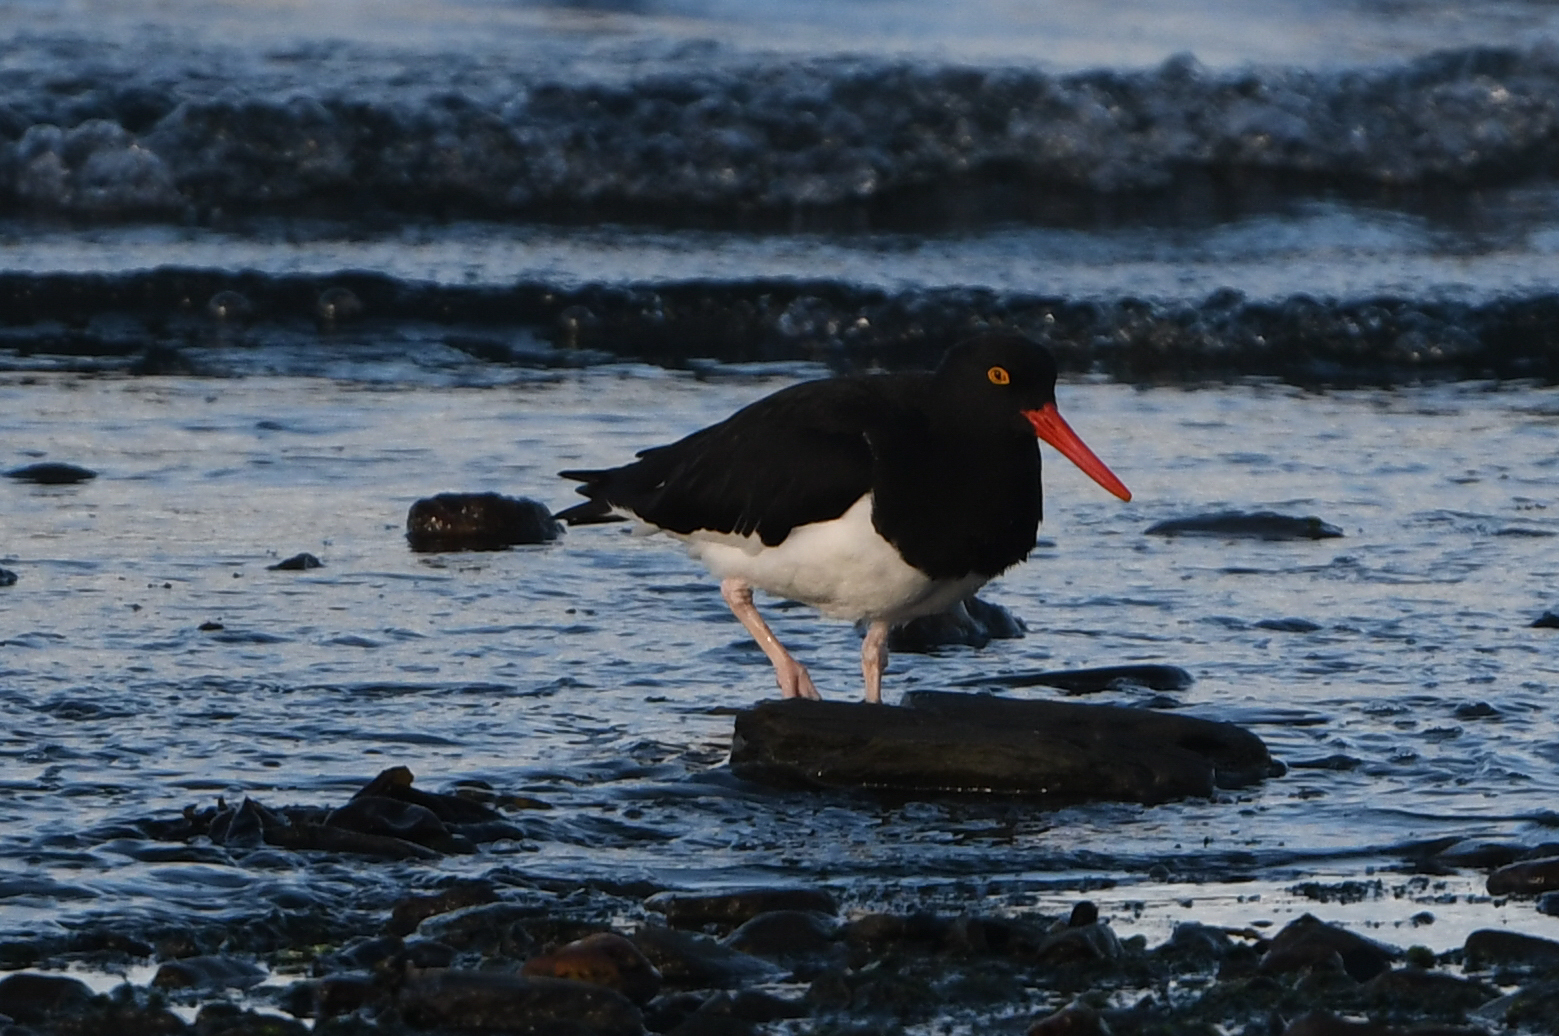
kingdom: Animalia
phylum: Chordata
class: Aves
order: Charadriiformes
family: Haematopodidae
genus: Haematopus
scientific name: Haematopus leucopodus
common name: Magellanic oystercatcher
